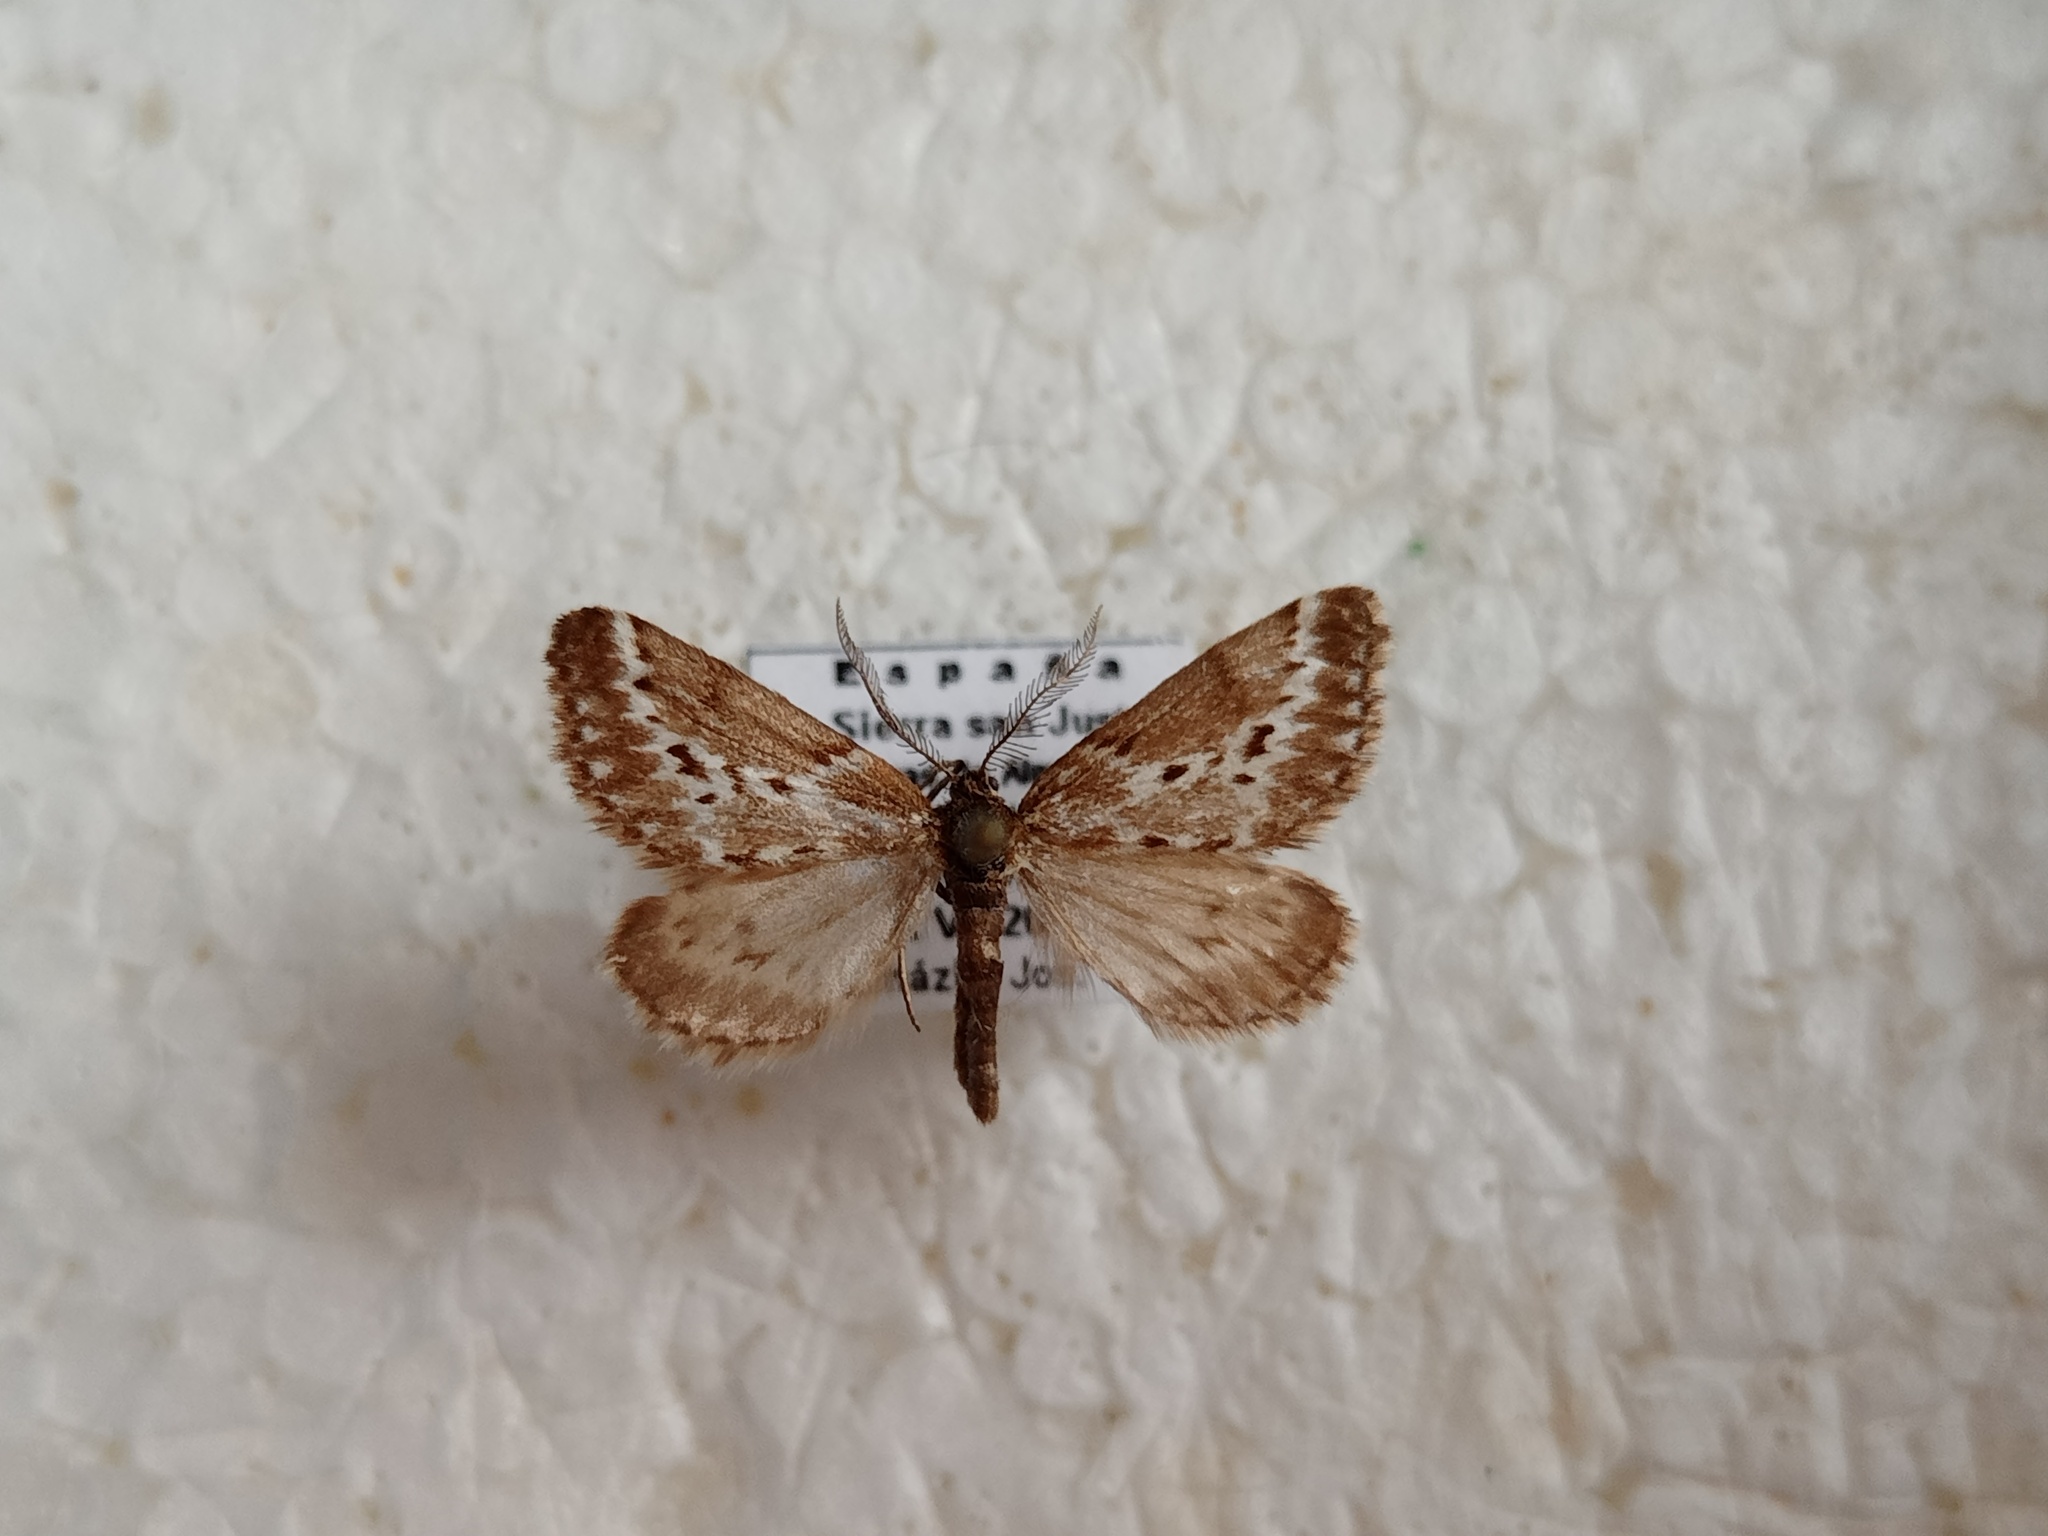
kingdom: Animalia
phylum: Arthropoda
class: Insecta
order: Lepidoptera
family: Geometridae
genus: Phyllometra
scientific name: Phyllometra gracilaria
